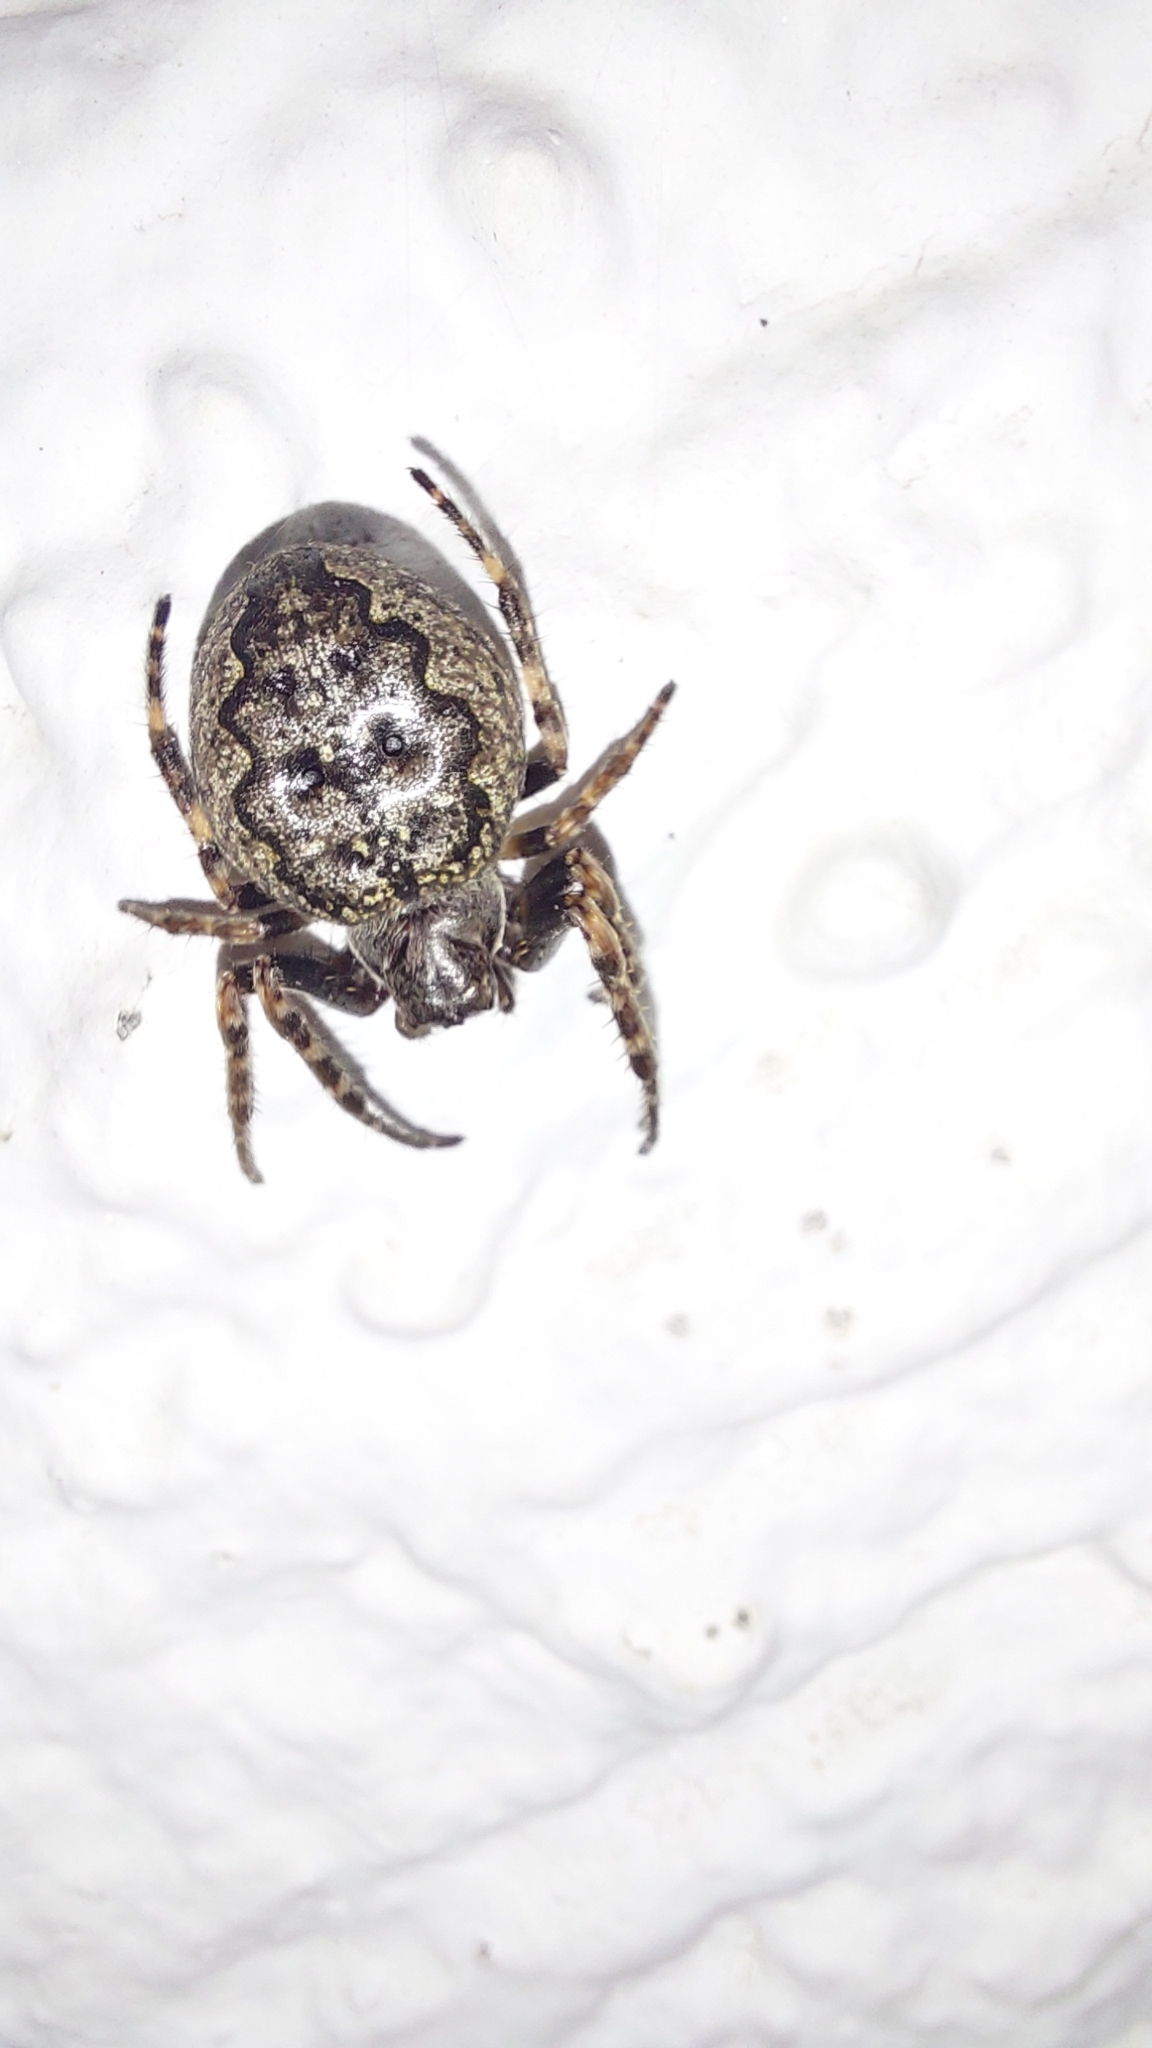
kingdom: Animalia
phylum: Arthropoda
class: Arachnida
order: Araneae
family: Araneidae
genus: Nuctenea
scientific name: Nuctenea umbratica
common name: Toad spider
